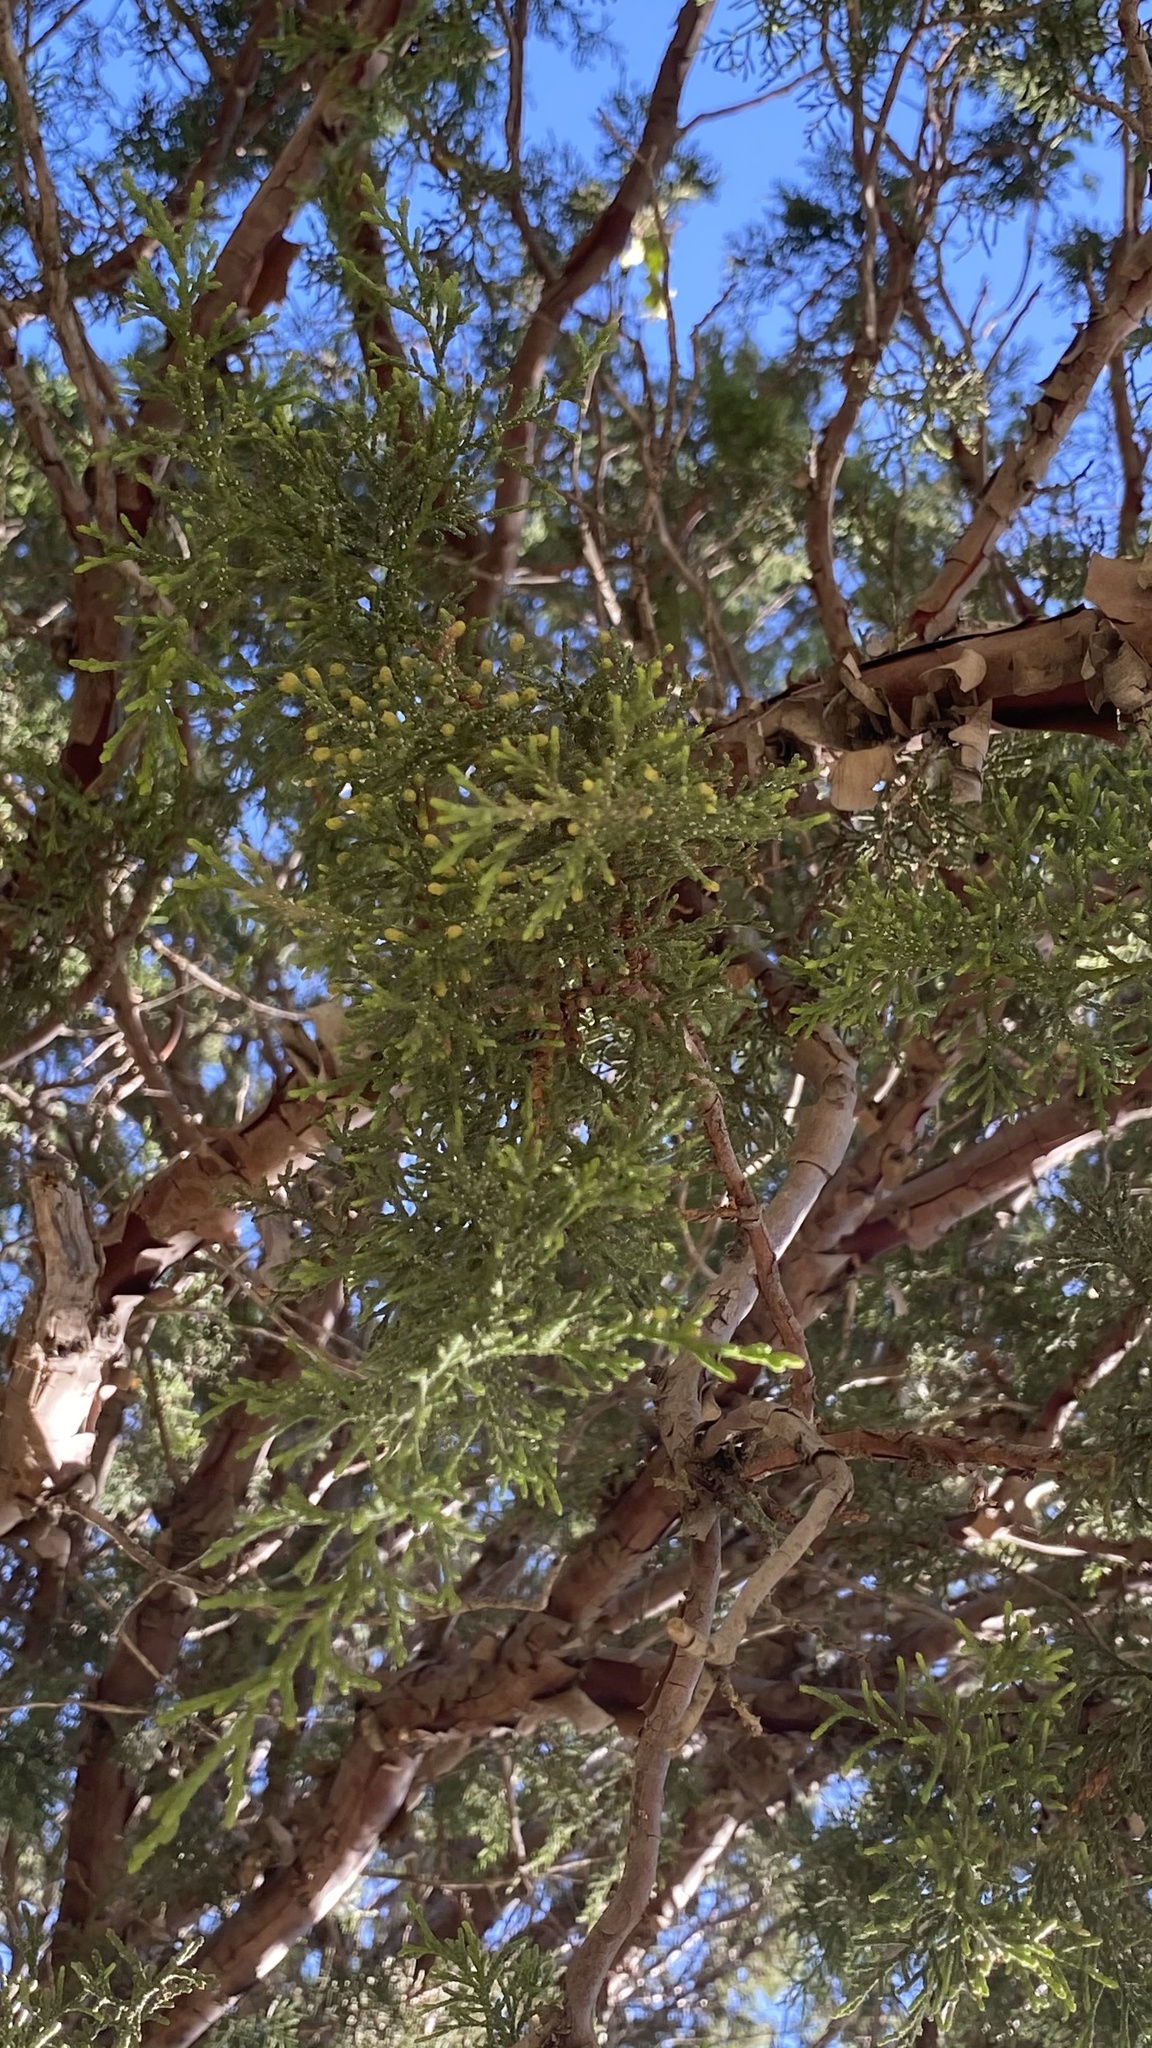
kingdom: Plantae
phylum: Tracheophyta
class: Pinopsida
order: Pinales
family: Cupressaceae
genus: Juniperus
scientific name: Juniperus deppeana
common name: Alligator juniper
